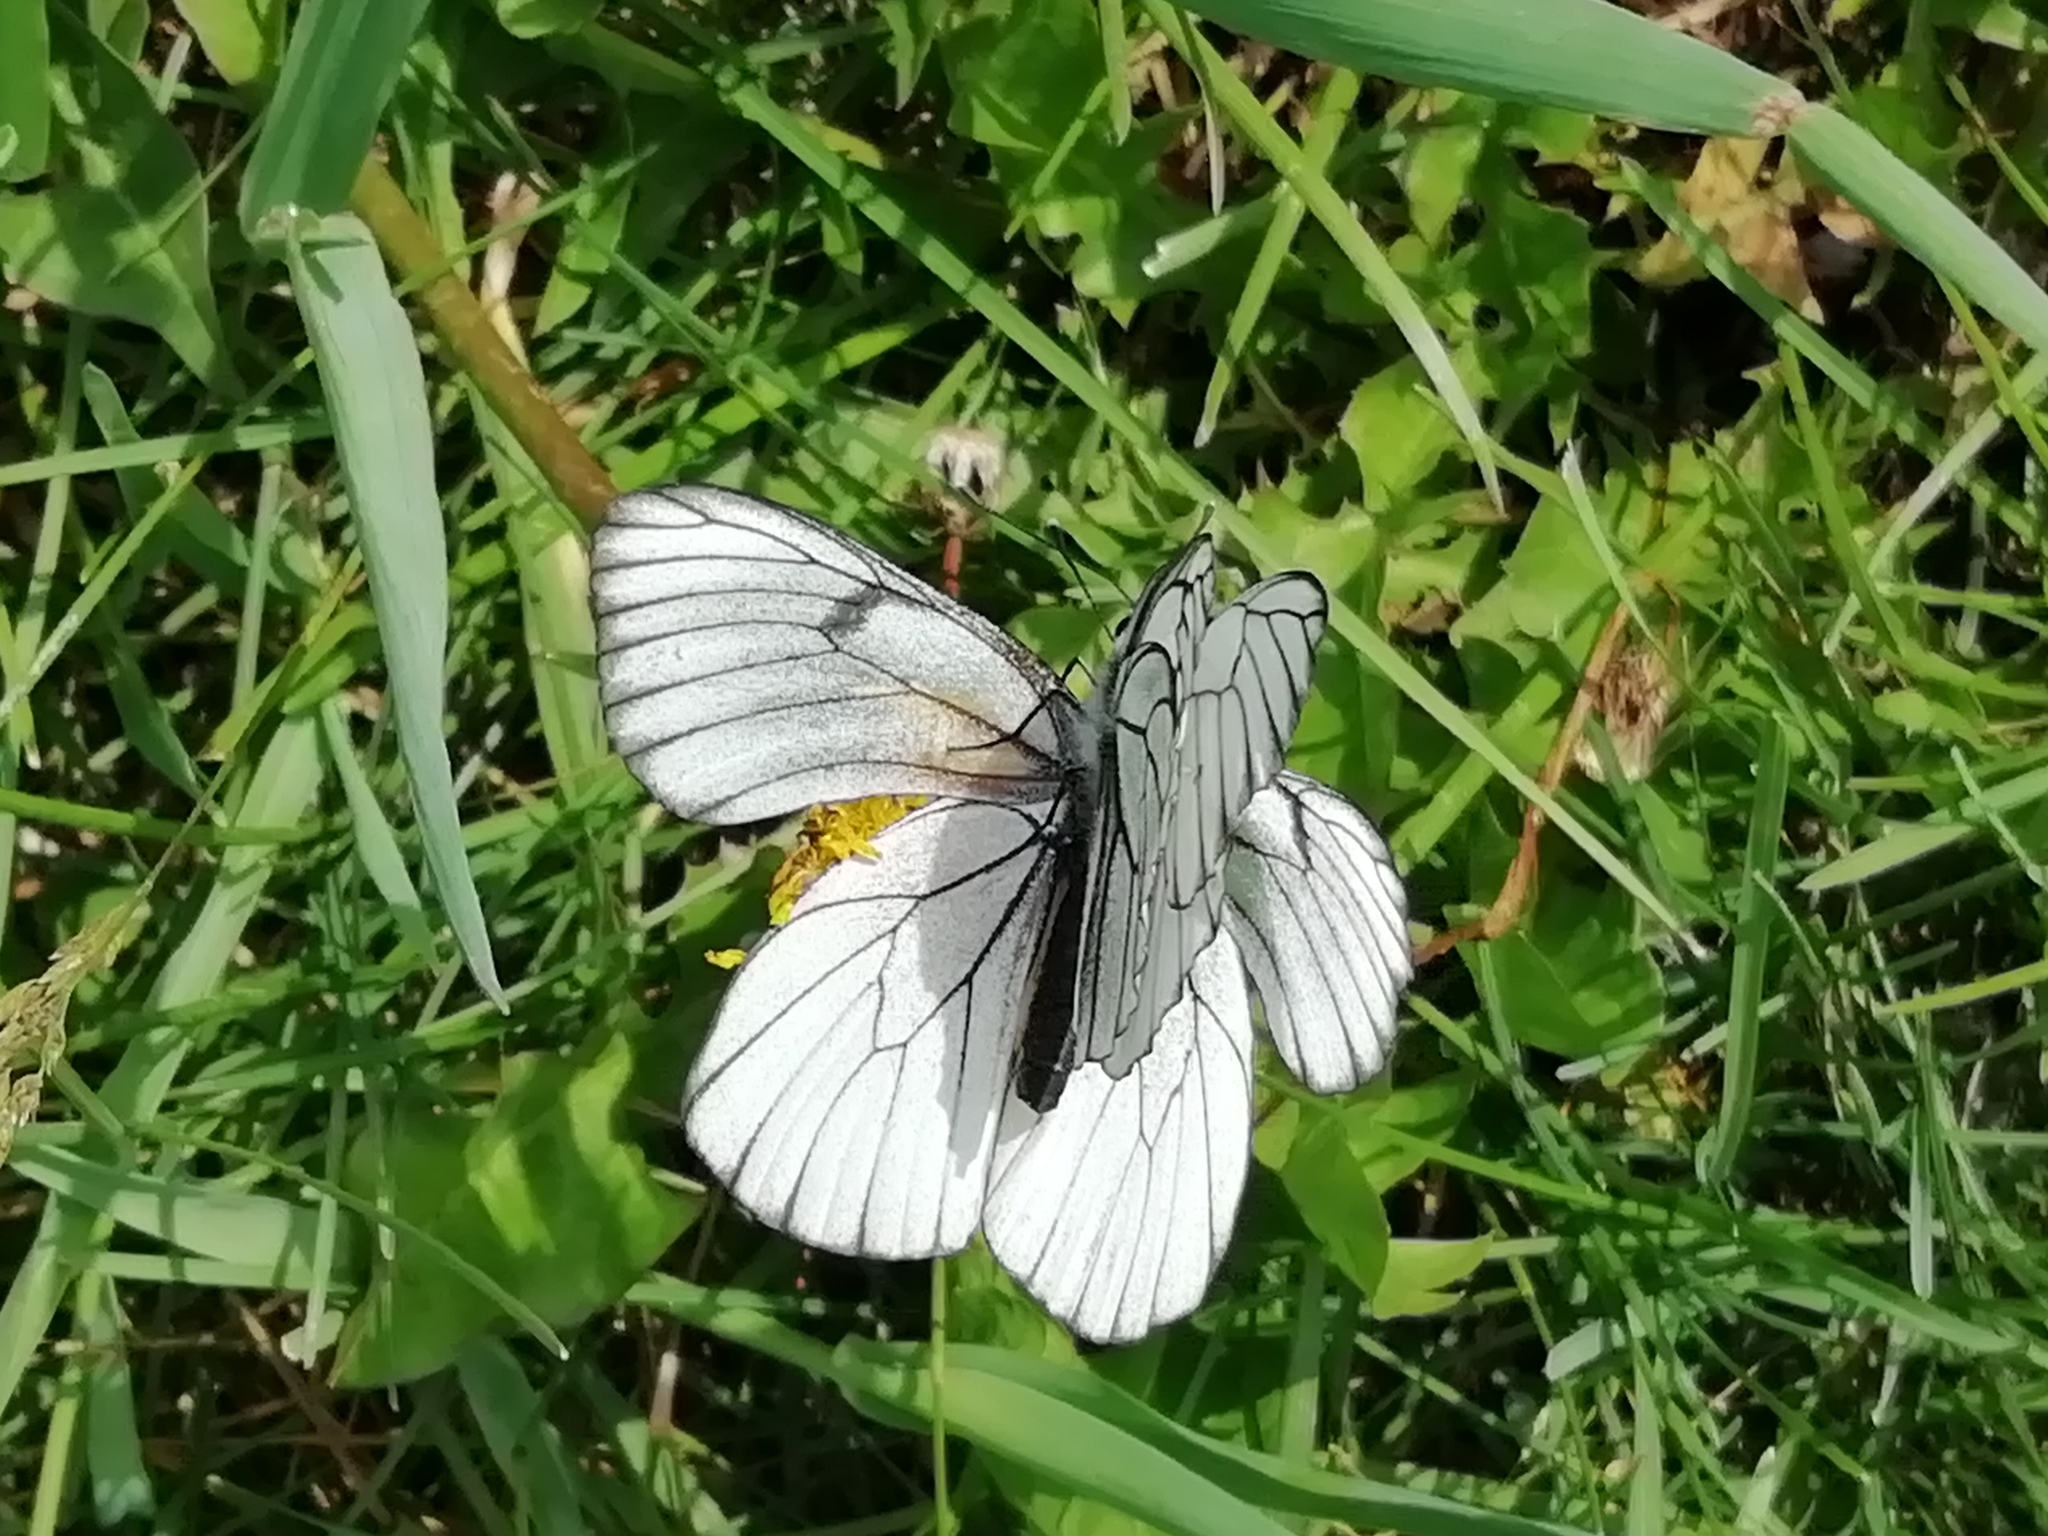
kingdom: Animalia
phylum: Arthropoda
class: Insecta
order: Lepidoptera
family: Pieridae
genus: Aporia
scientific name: Aporia crataegi
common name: Black-veined white
